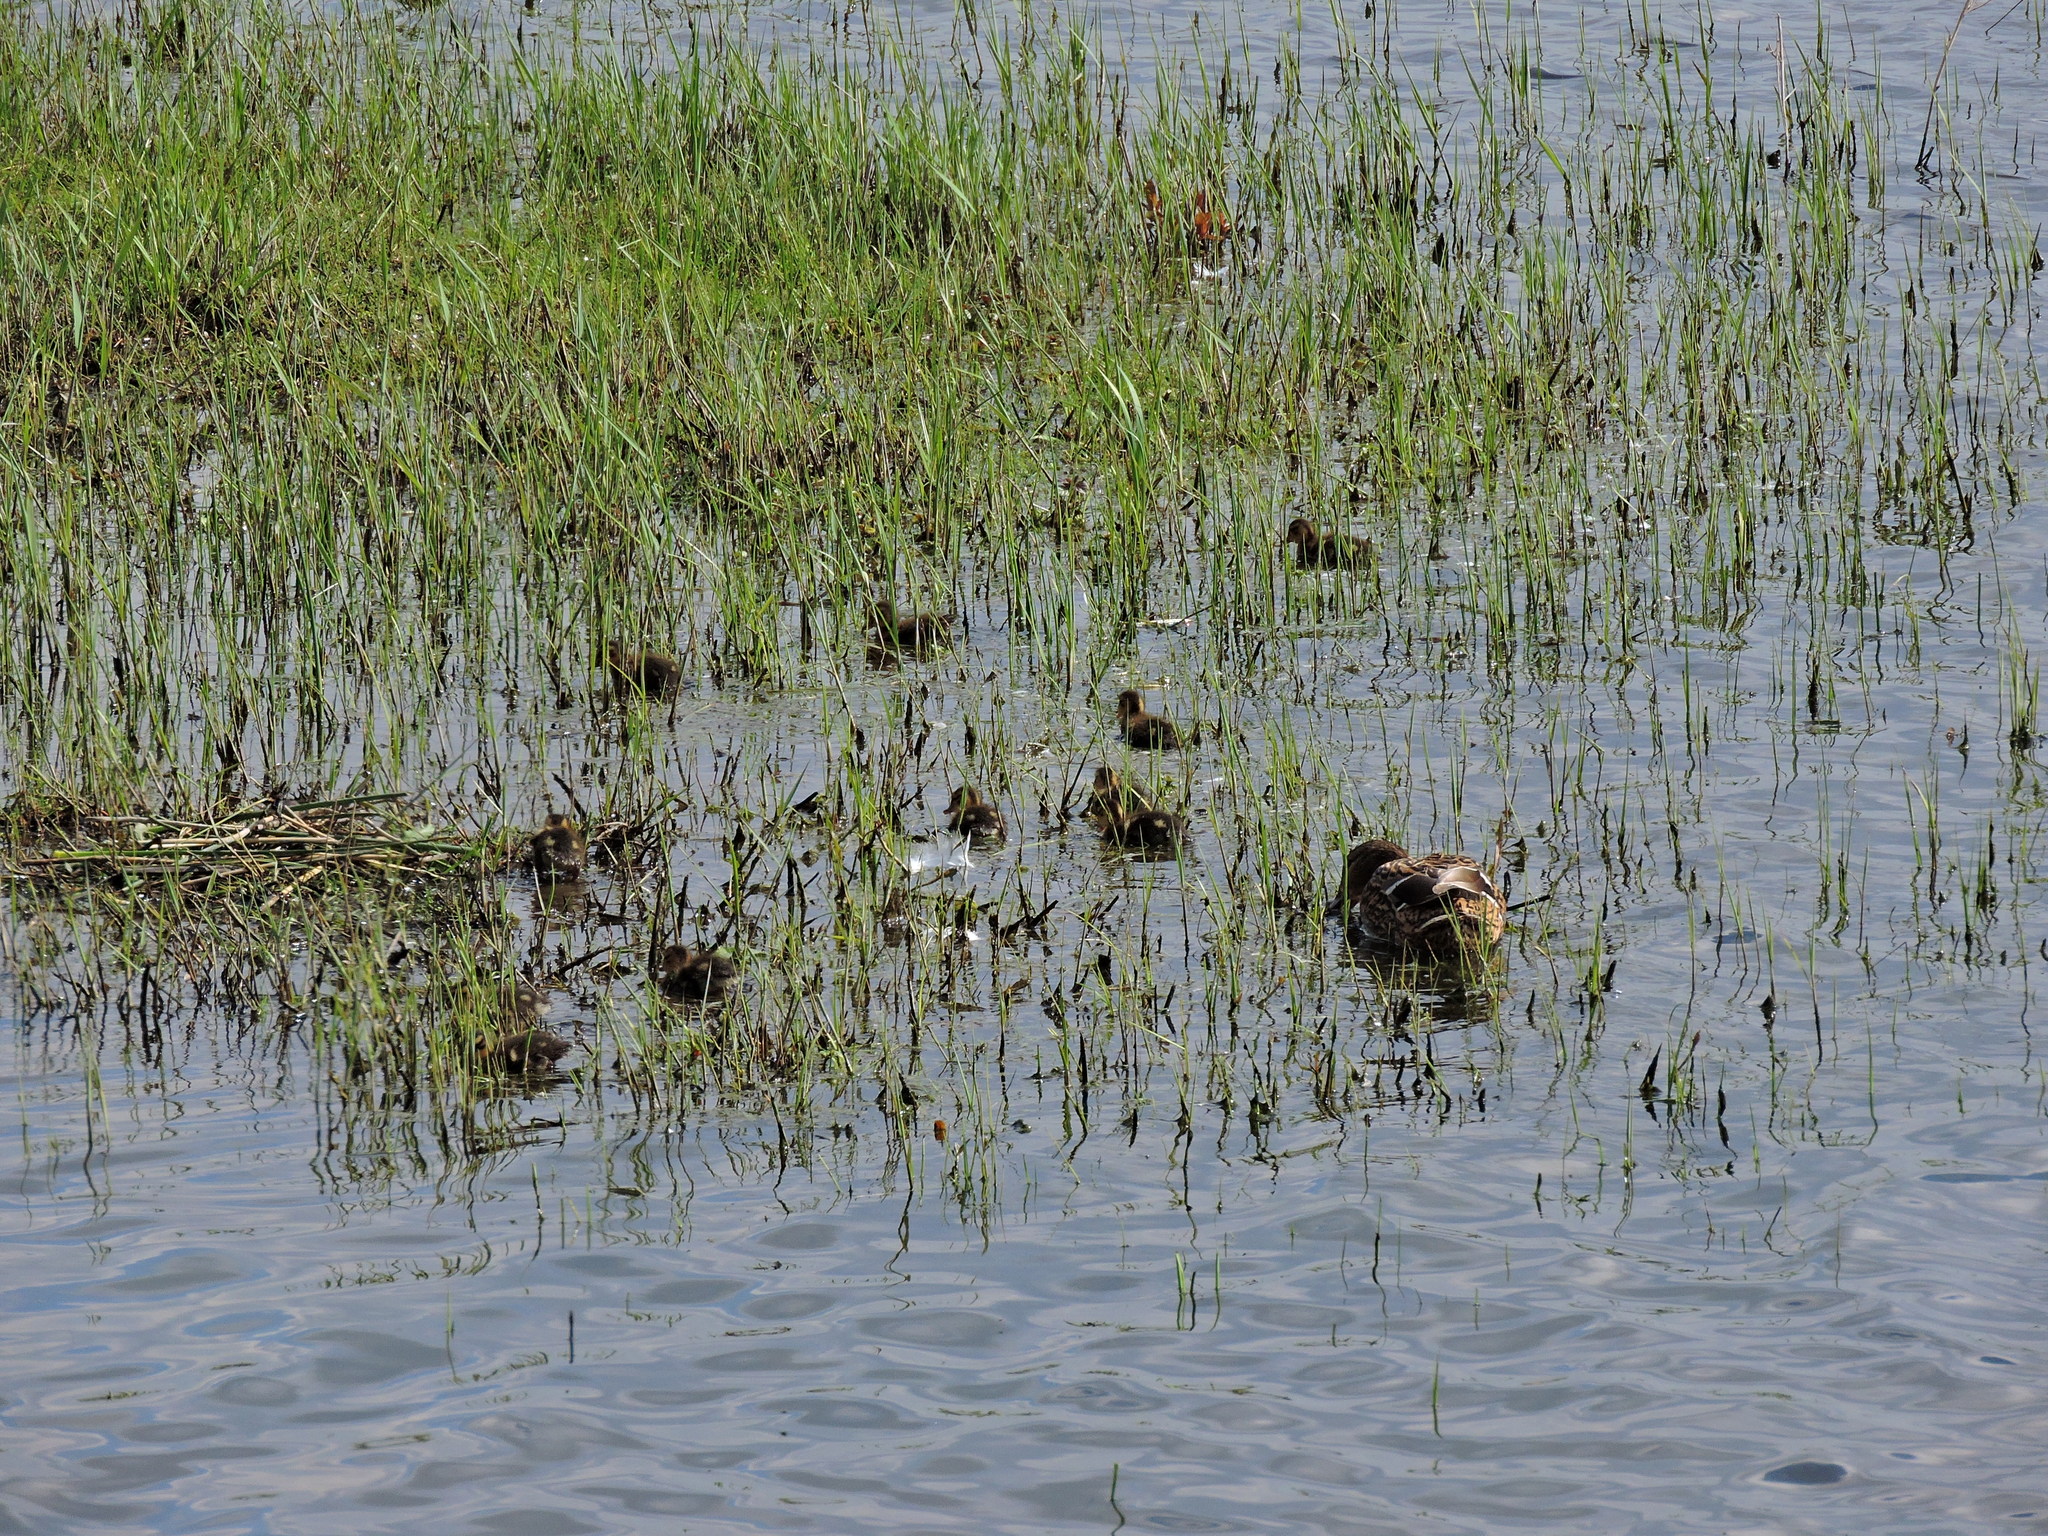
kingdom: Animalia
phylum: Chordata
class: Aves
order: Anseriformes
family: Anatidae
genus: Spatula
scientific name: Spatula clypeata
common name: Northern shoveler
